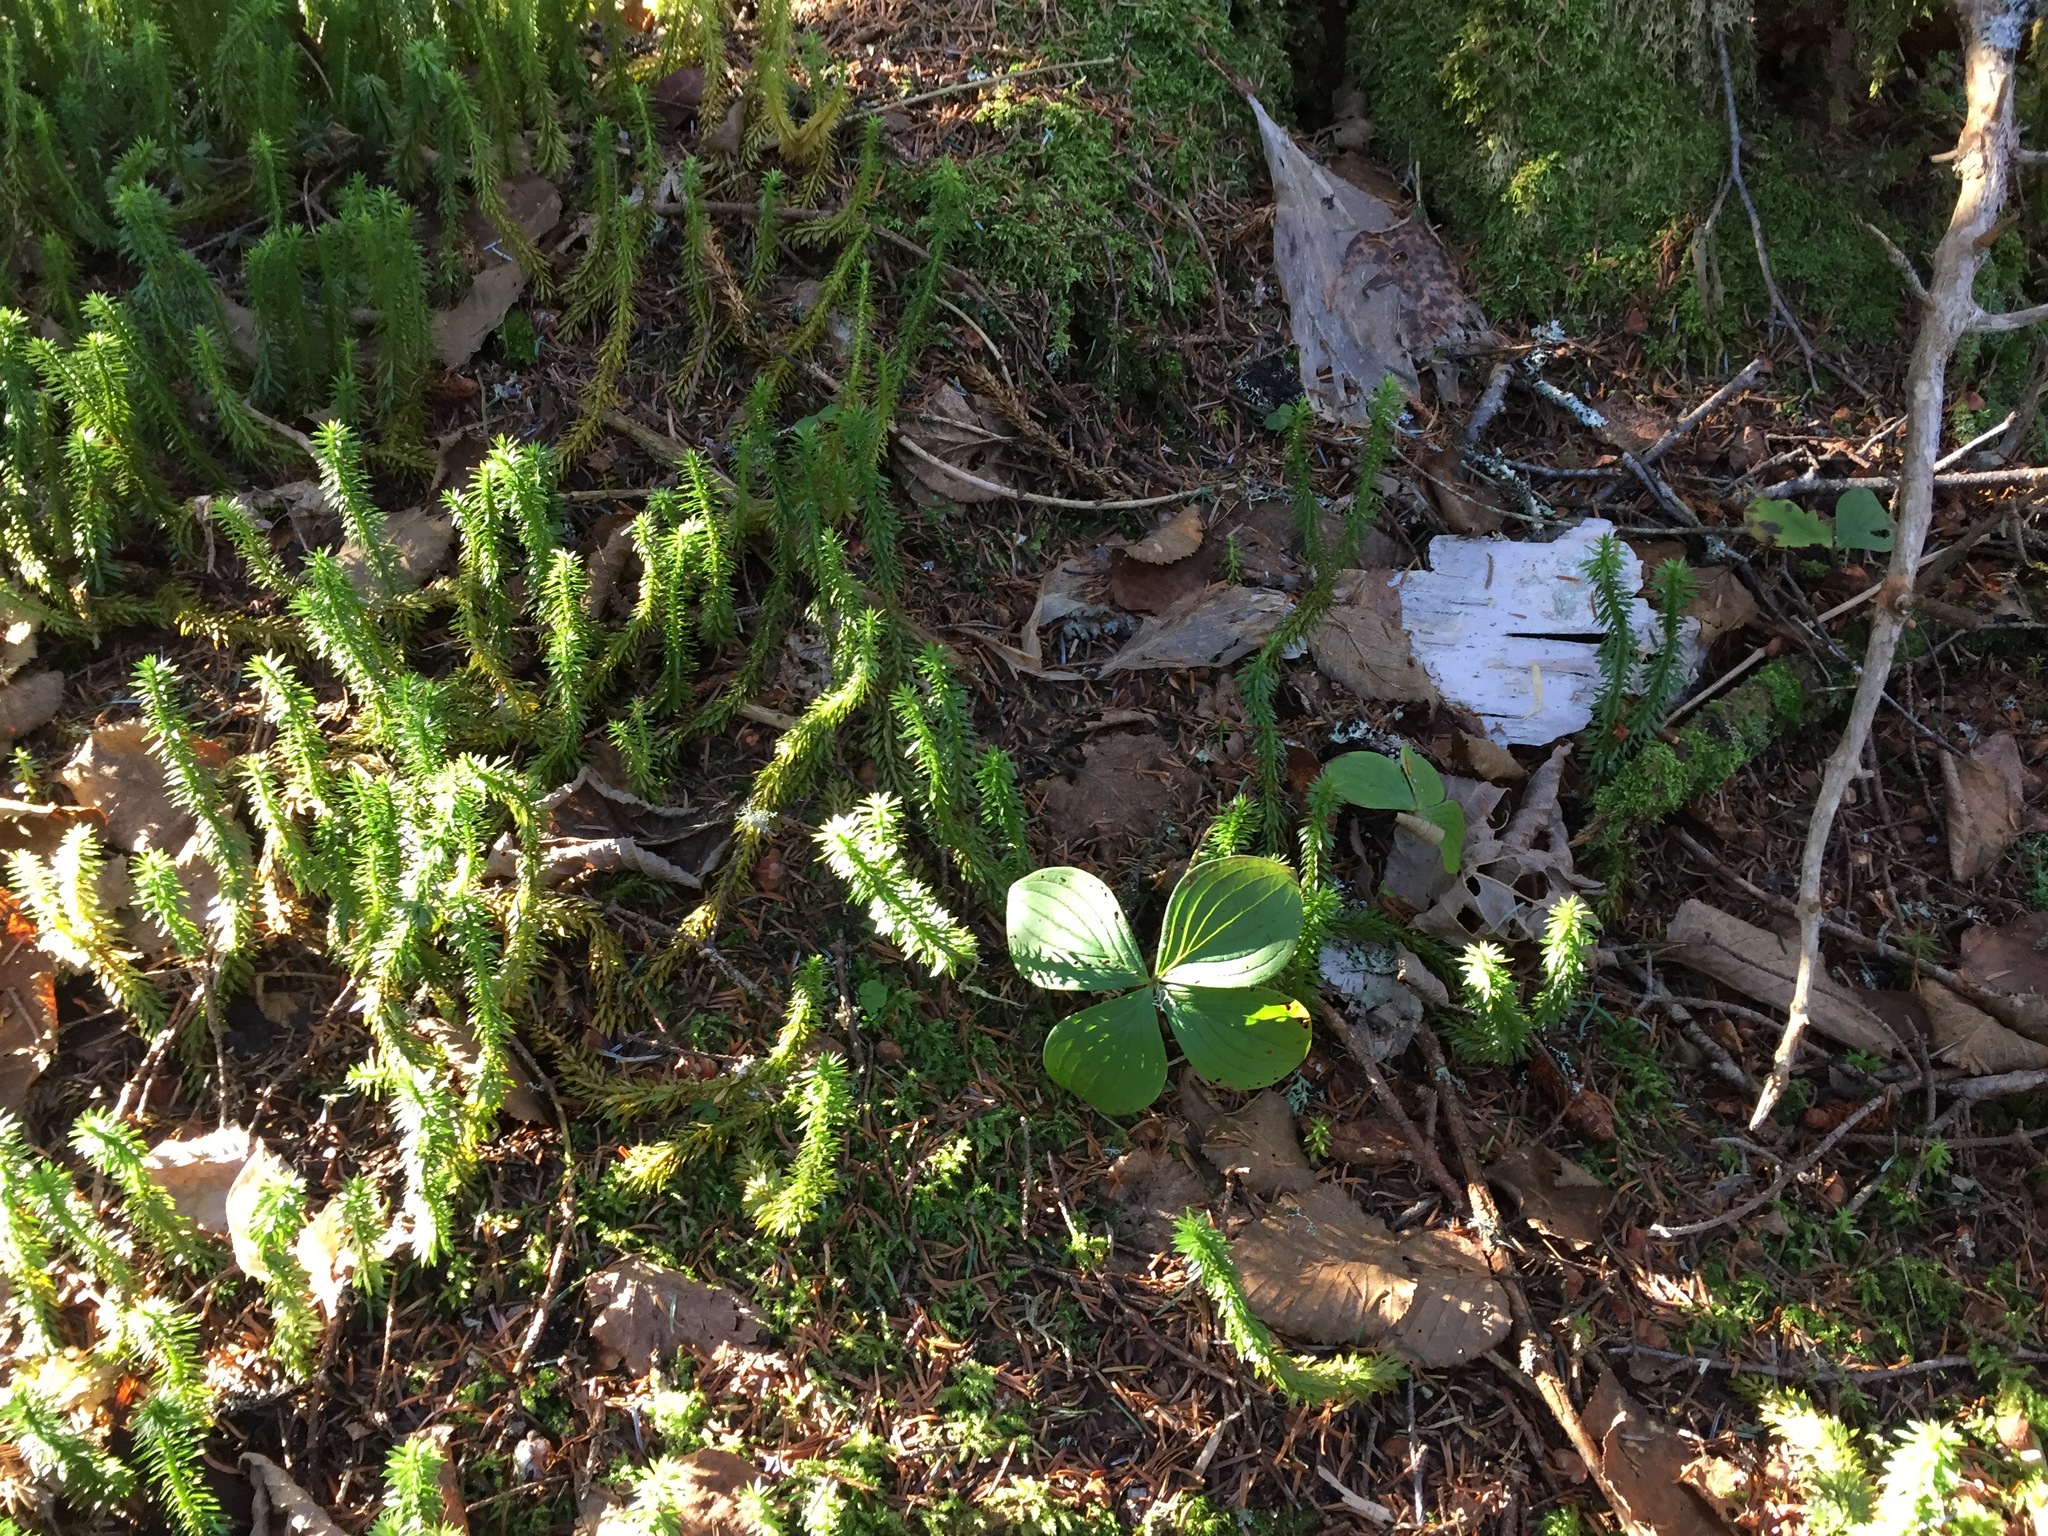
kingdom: Plantae
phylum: Tracheophyta
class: Magnoliopsida
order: Cornales
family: Cornaceae
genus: Cornus
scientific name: Cornus canadensis
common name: Creeping dogwood
